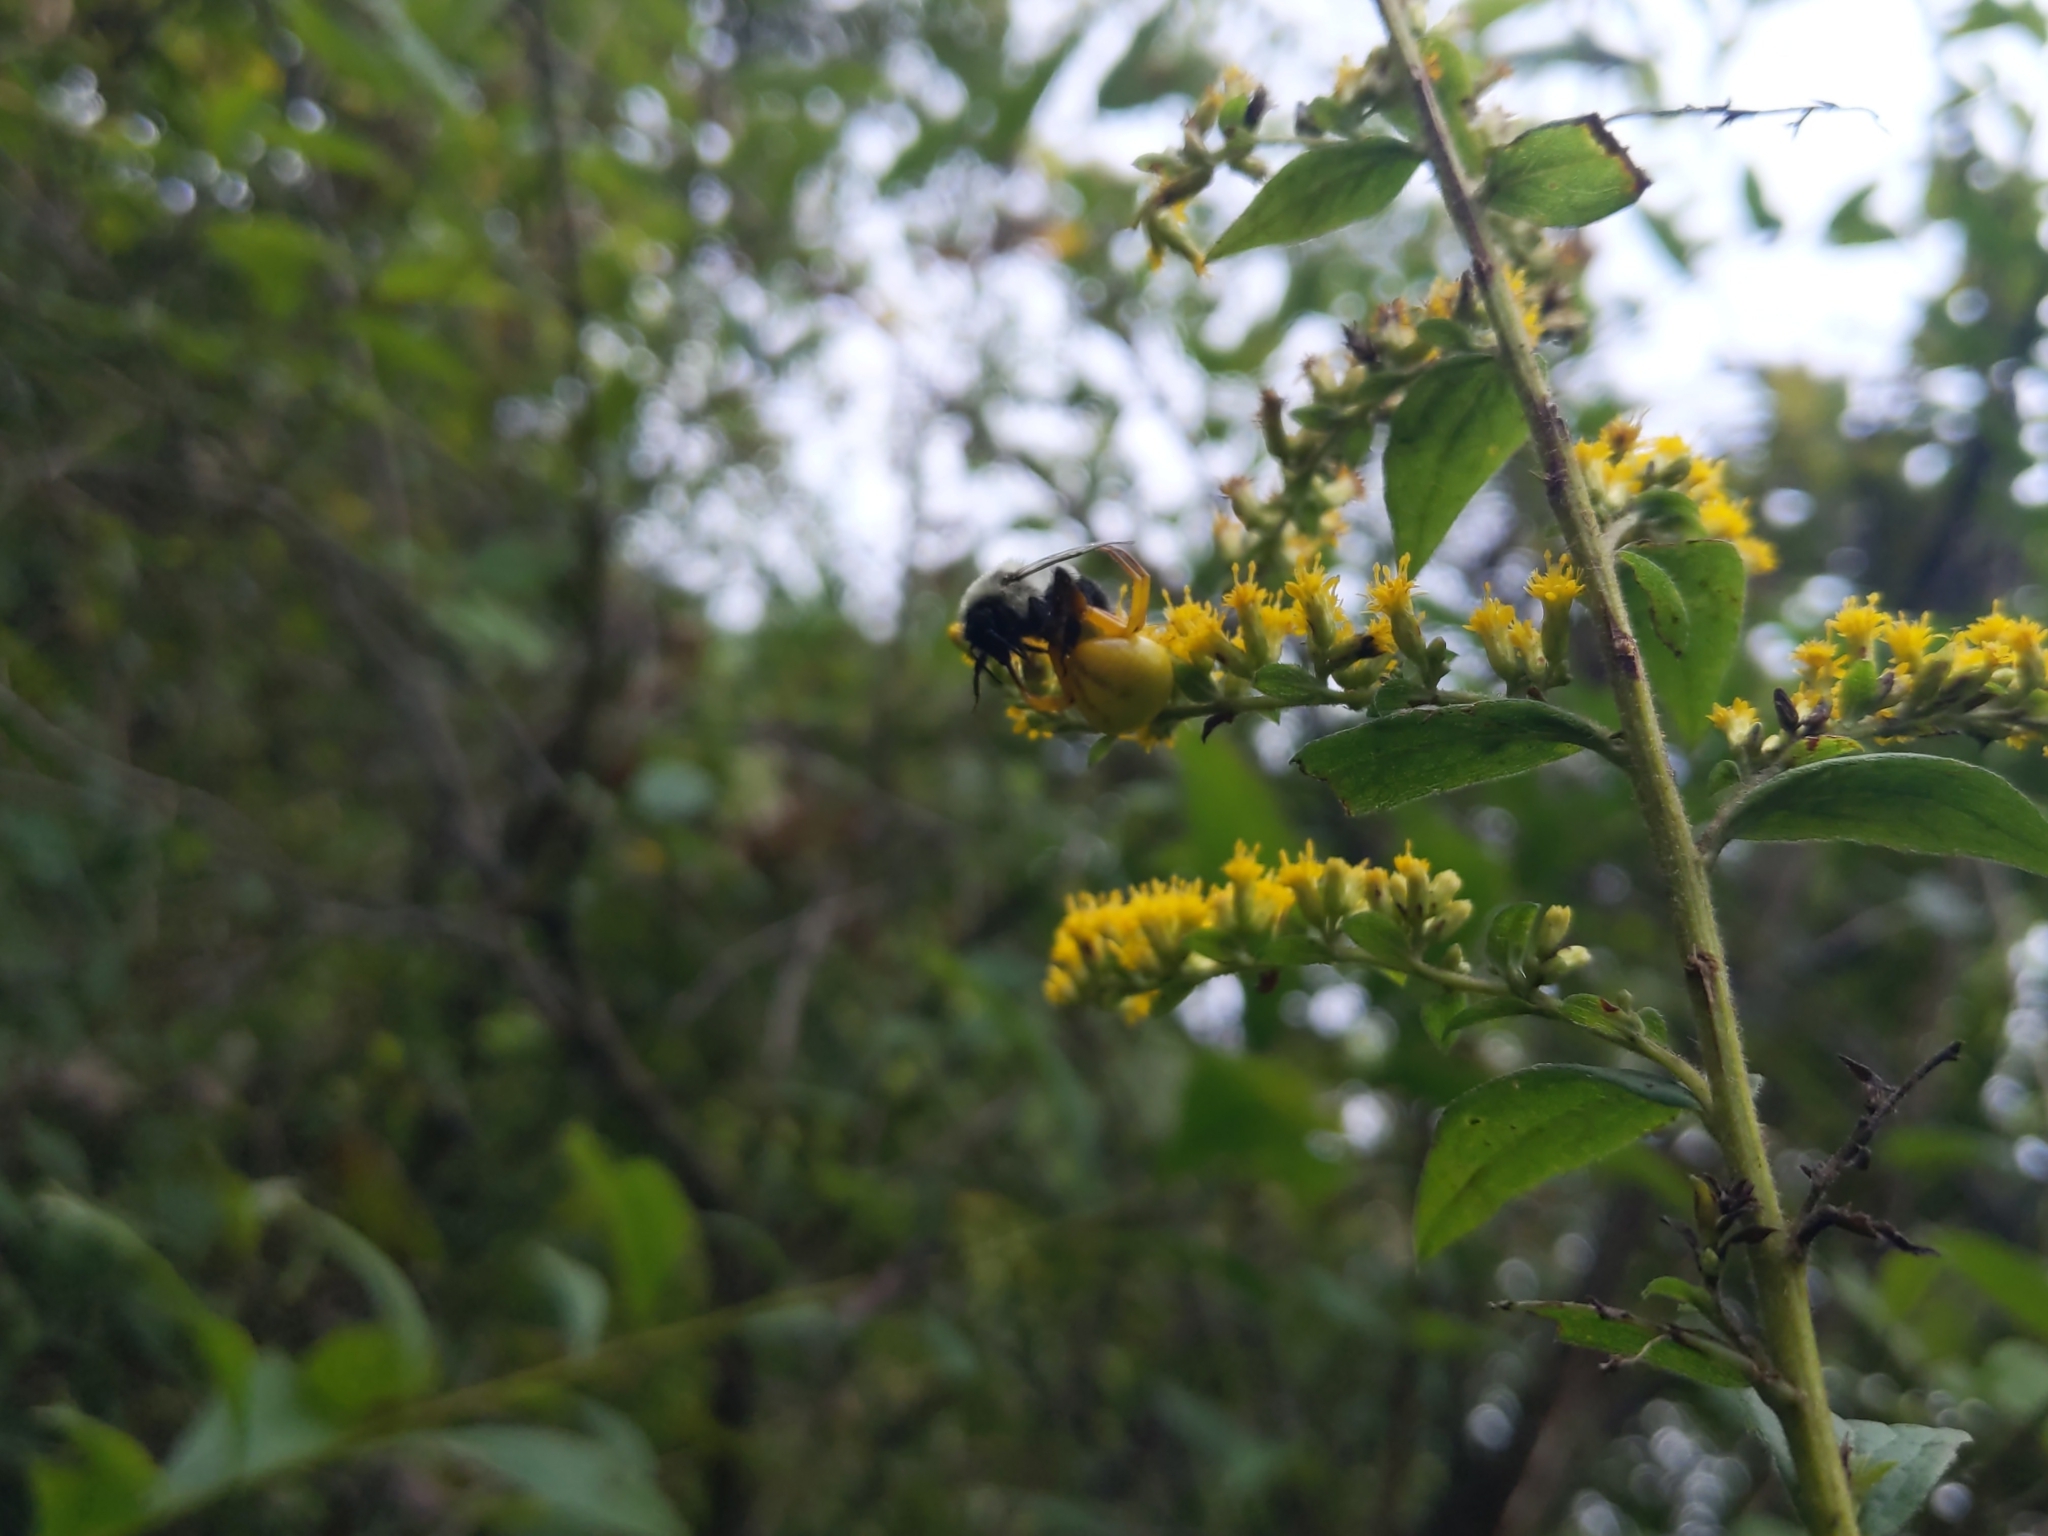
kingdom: Animalia
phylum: Arthropoda
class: Arachnida
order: Araneae
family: Thomisidae
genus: Misumenoides
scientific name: Misumenoides formosipes
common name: White-banded crab spider
